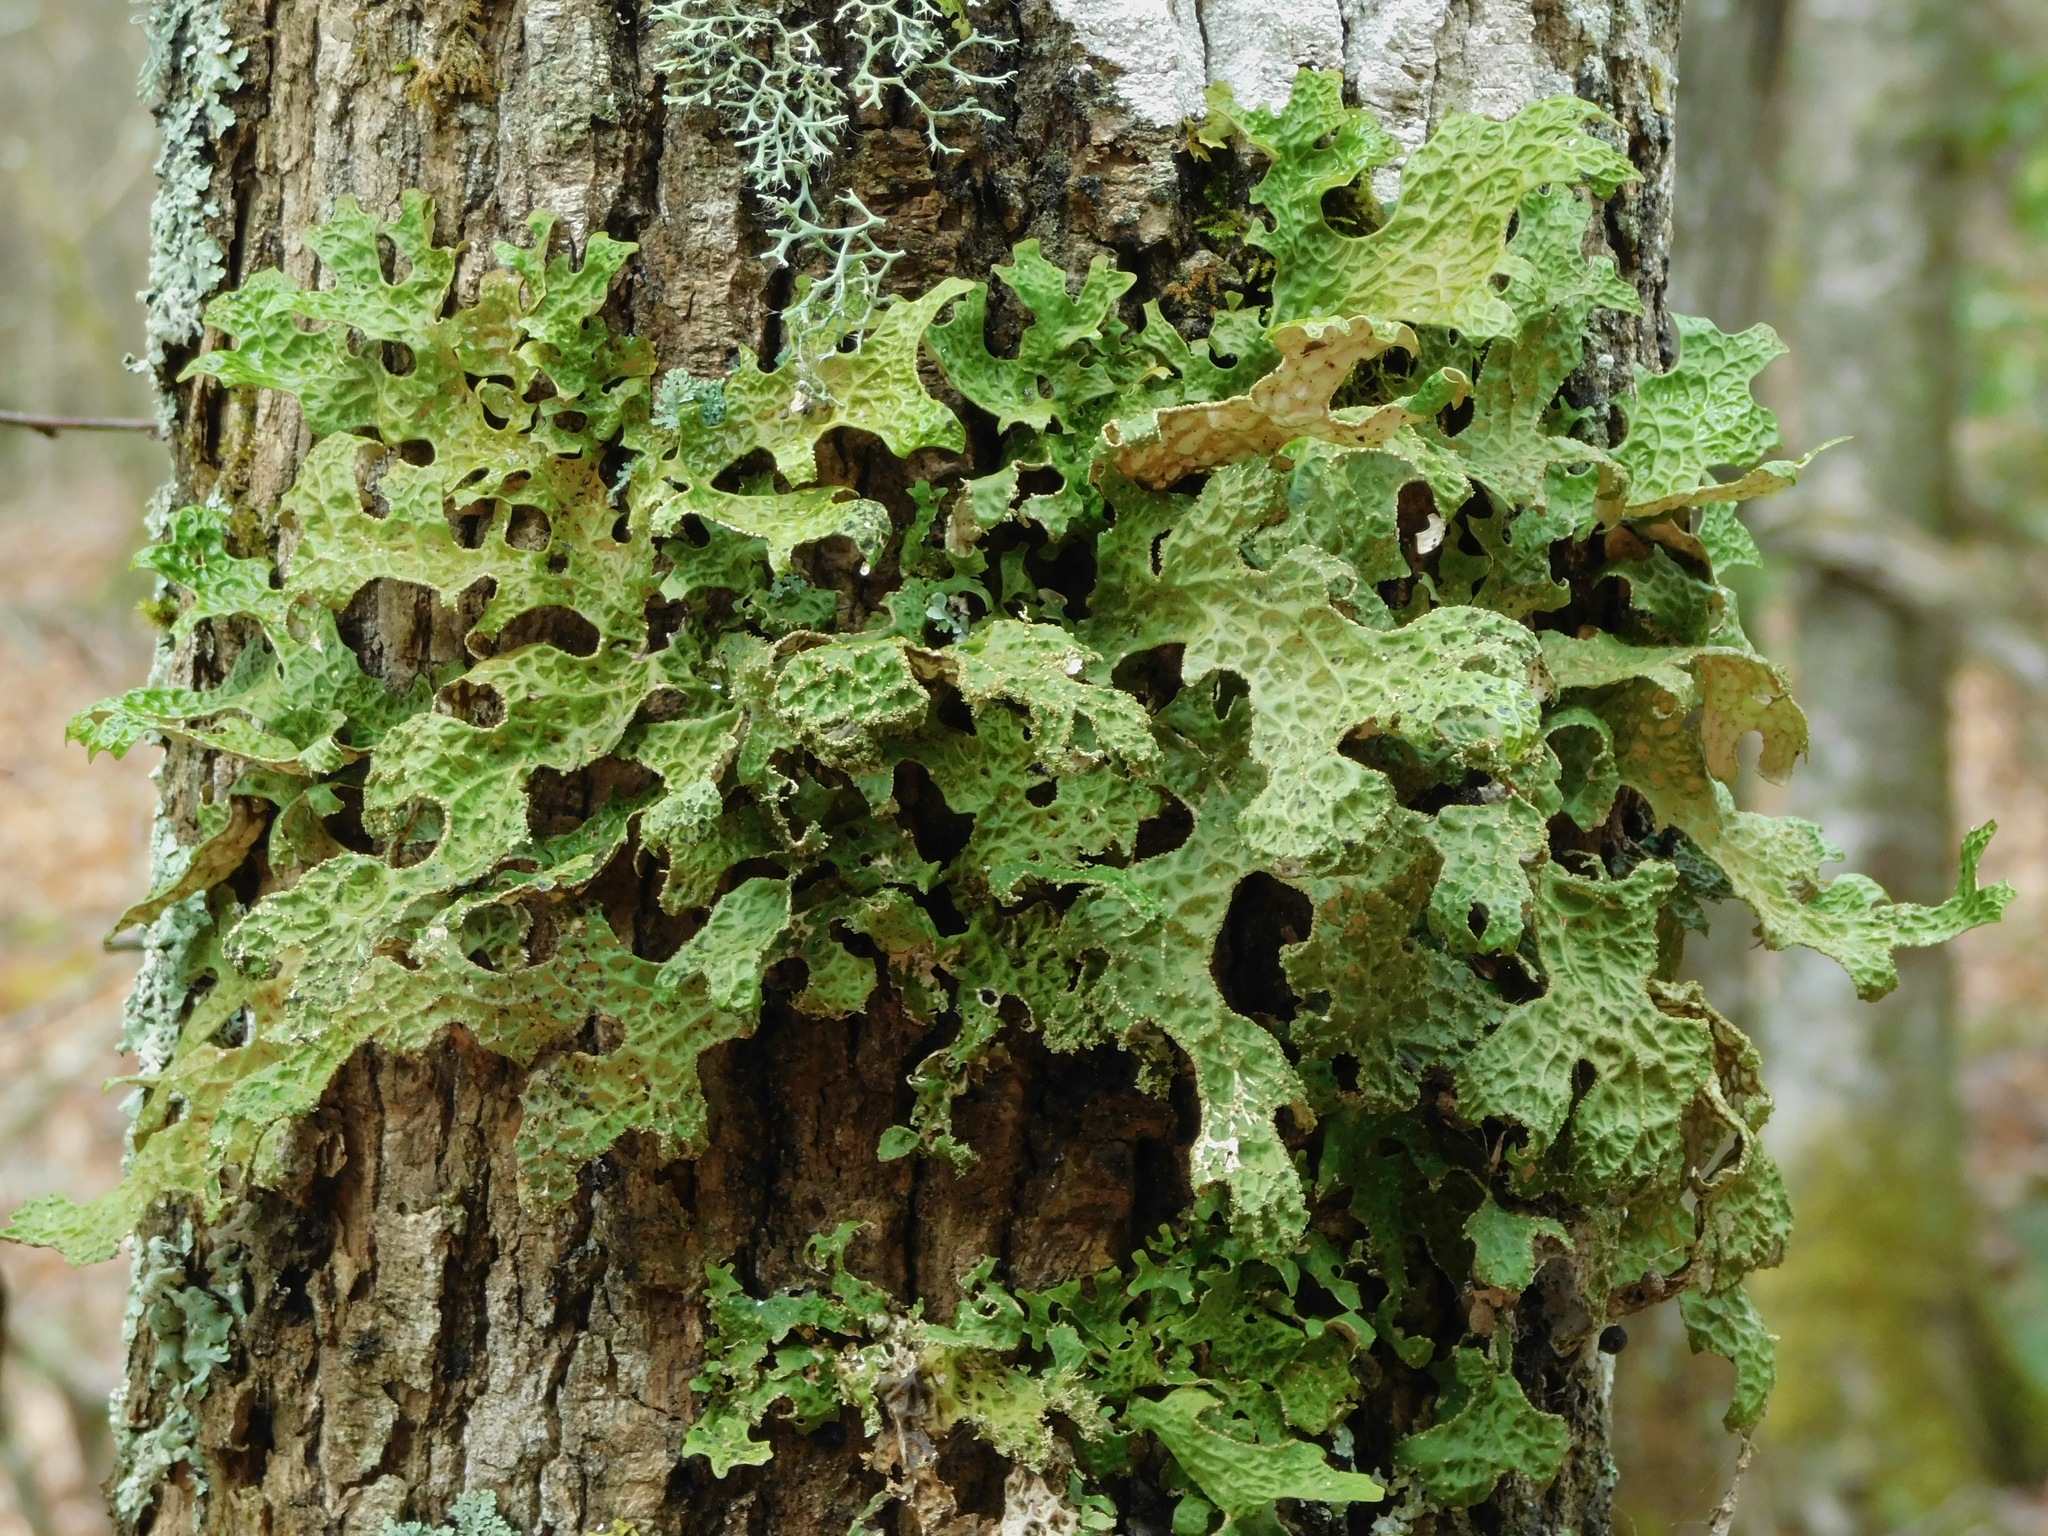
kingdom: Fungi
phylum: Ascomycota
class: Lecanoromycetes
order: Peltigerales
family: Lobariaceae
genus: Lobaria
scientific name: Lobaria pulmonaria
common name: Lungwort
